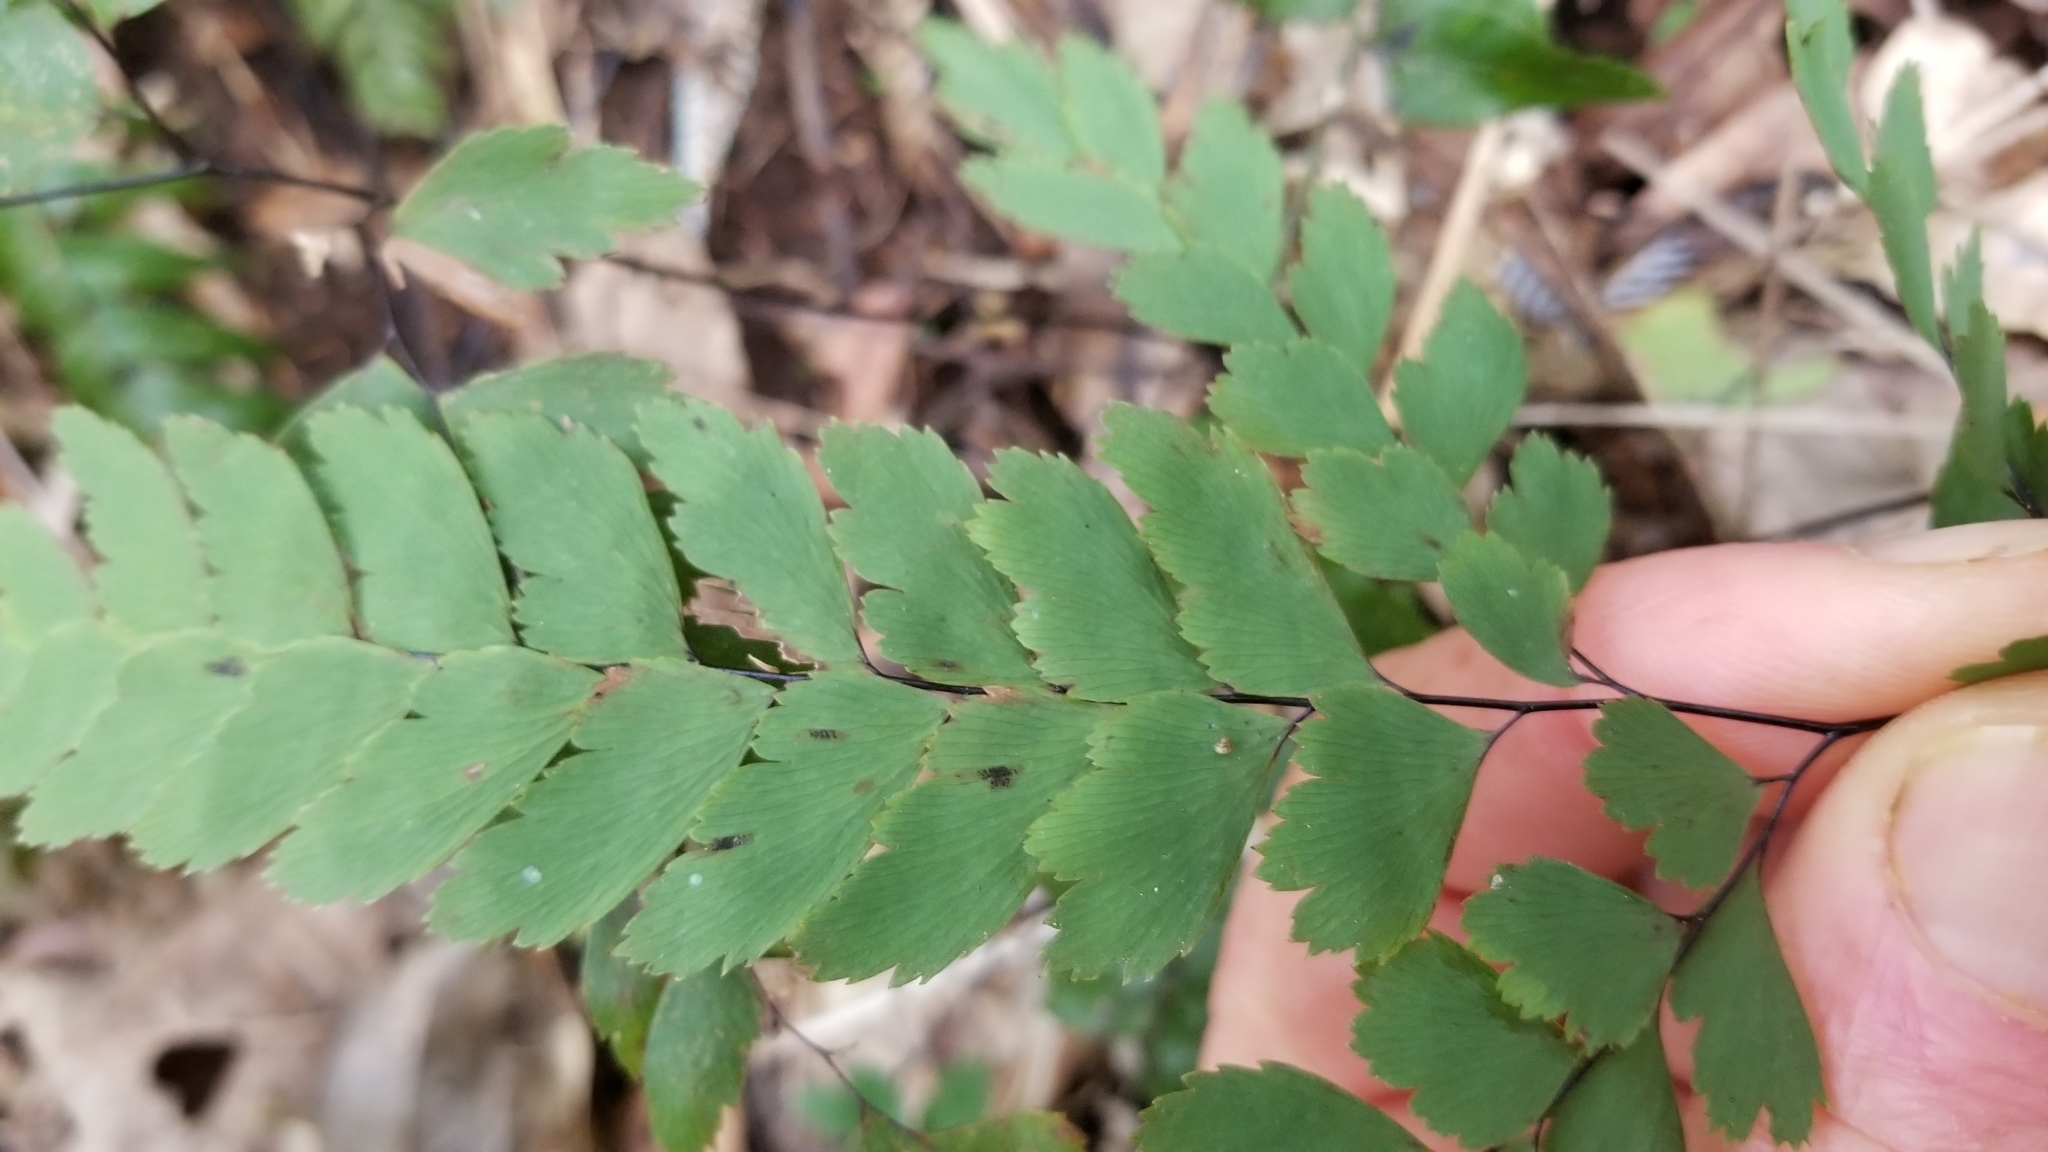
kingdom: Plantae
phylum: Tracheophyta
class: Polypodiopsida
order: Polypodiales
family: Pteridaceae
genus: Adiantum
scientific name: Adiantum cunninghamii
